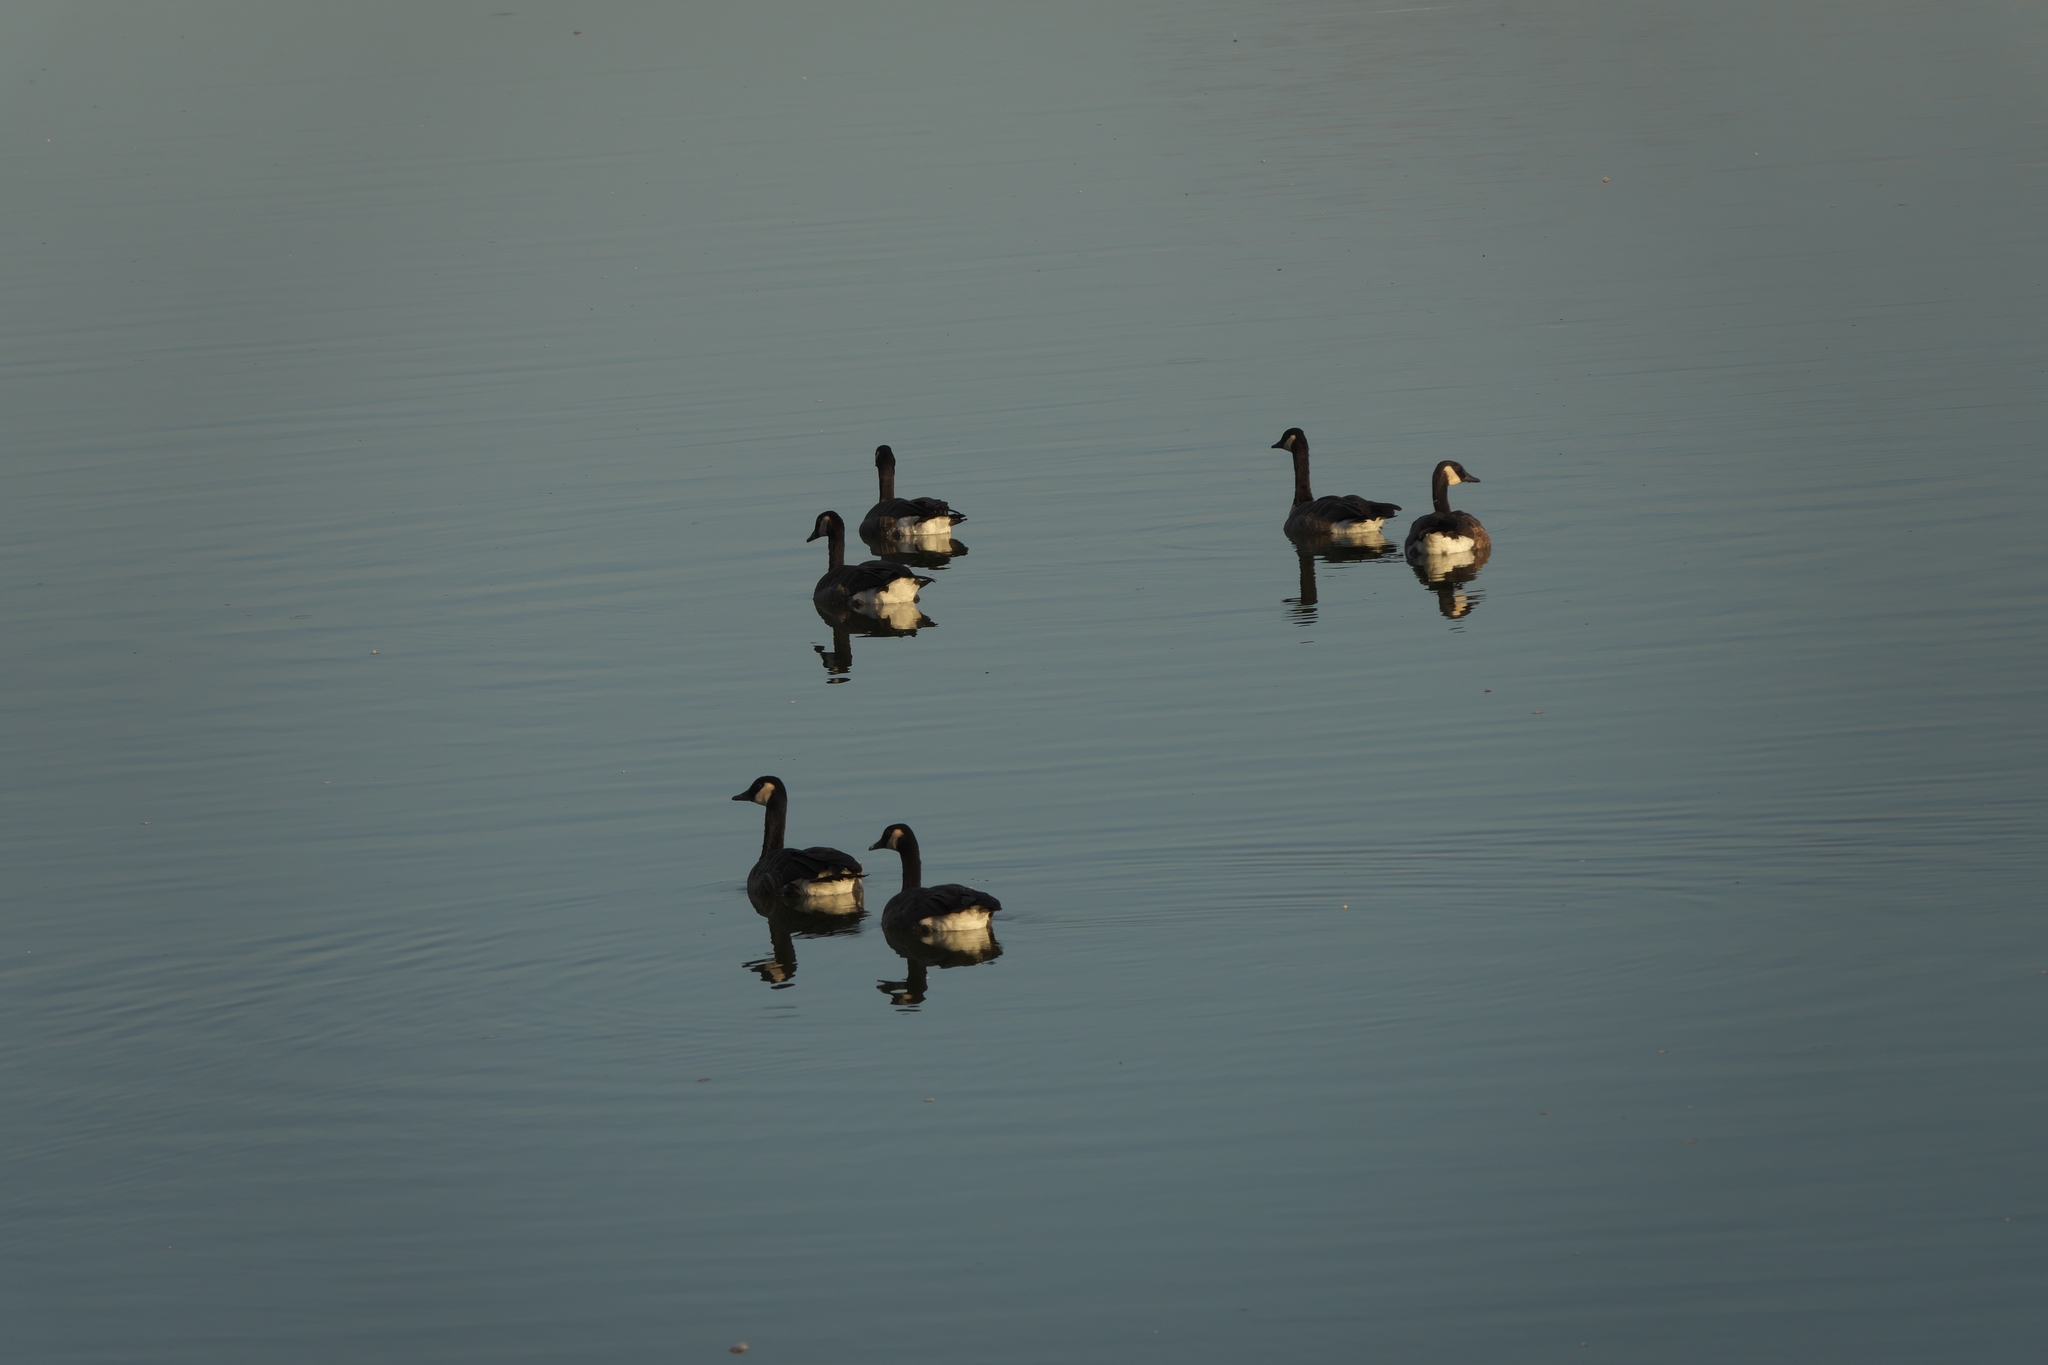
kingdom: Animalia
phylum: Chordata
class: Aves
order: Anseriformes
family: Anatidae
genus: Branta
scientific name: Branta canadensis
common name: Canada goose
